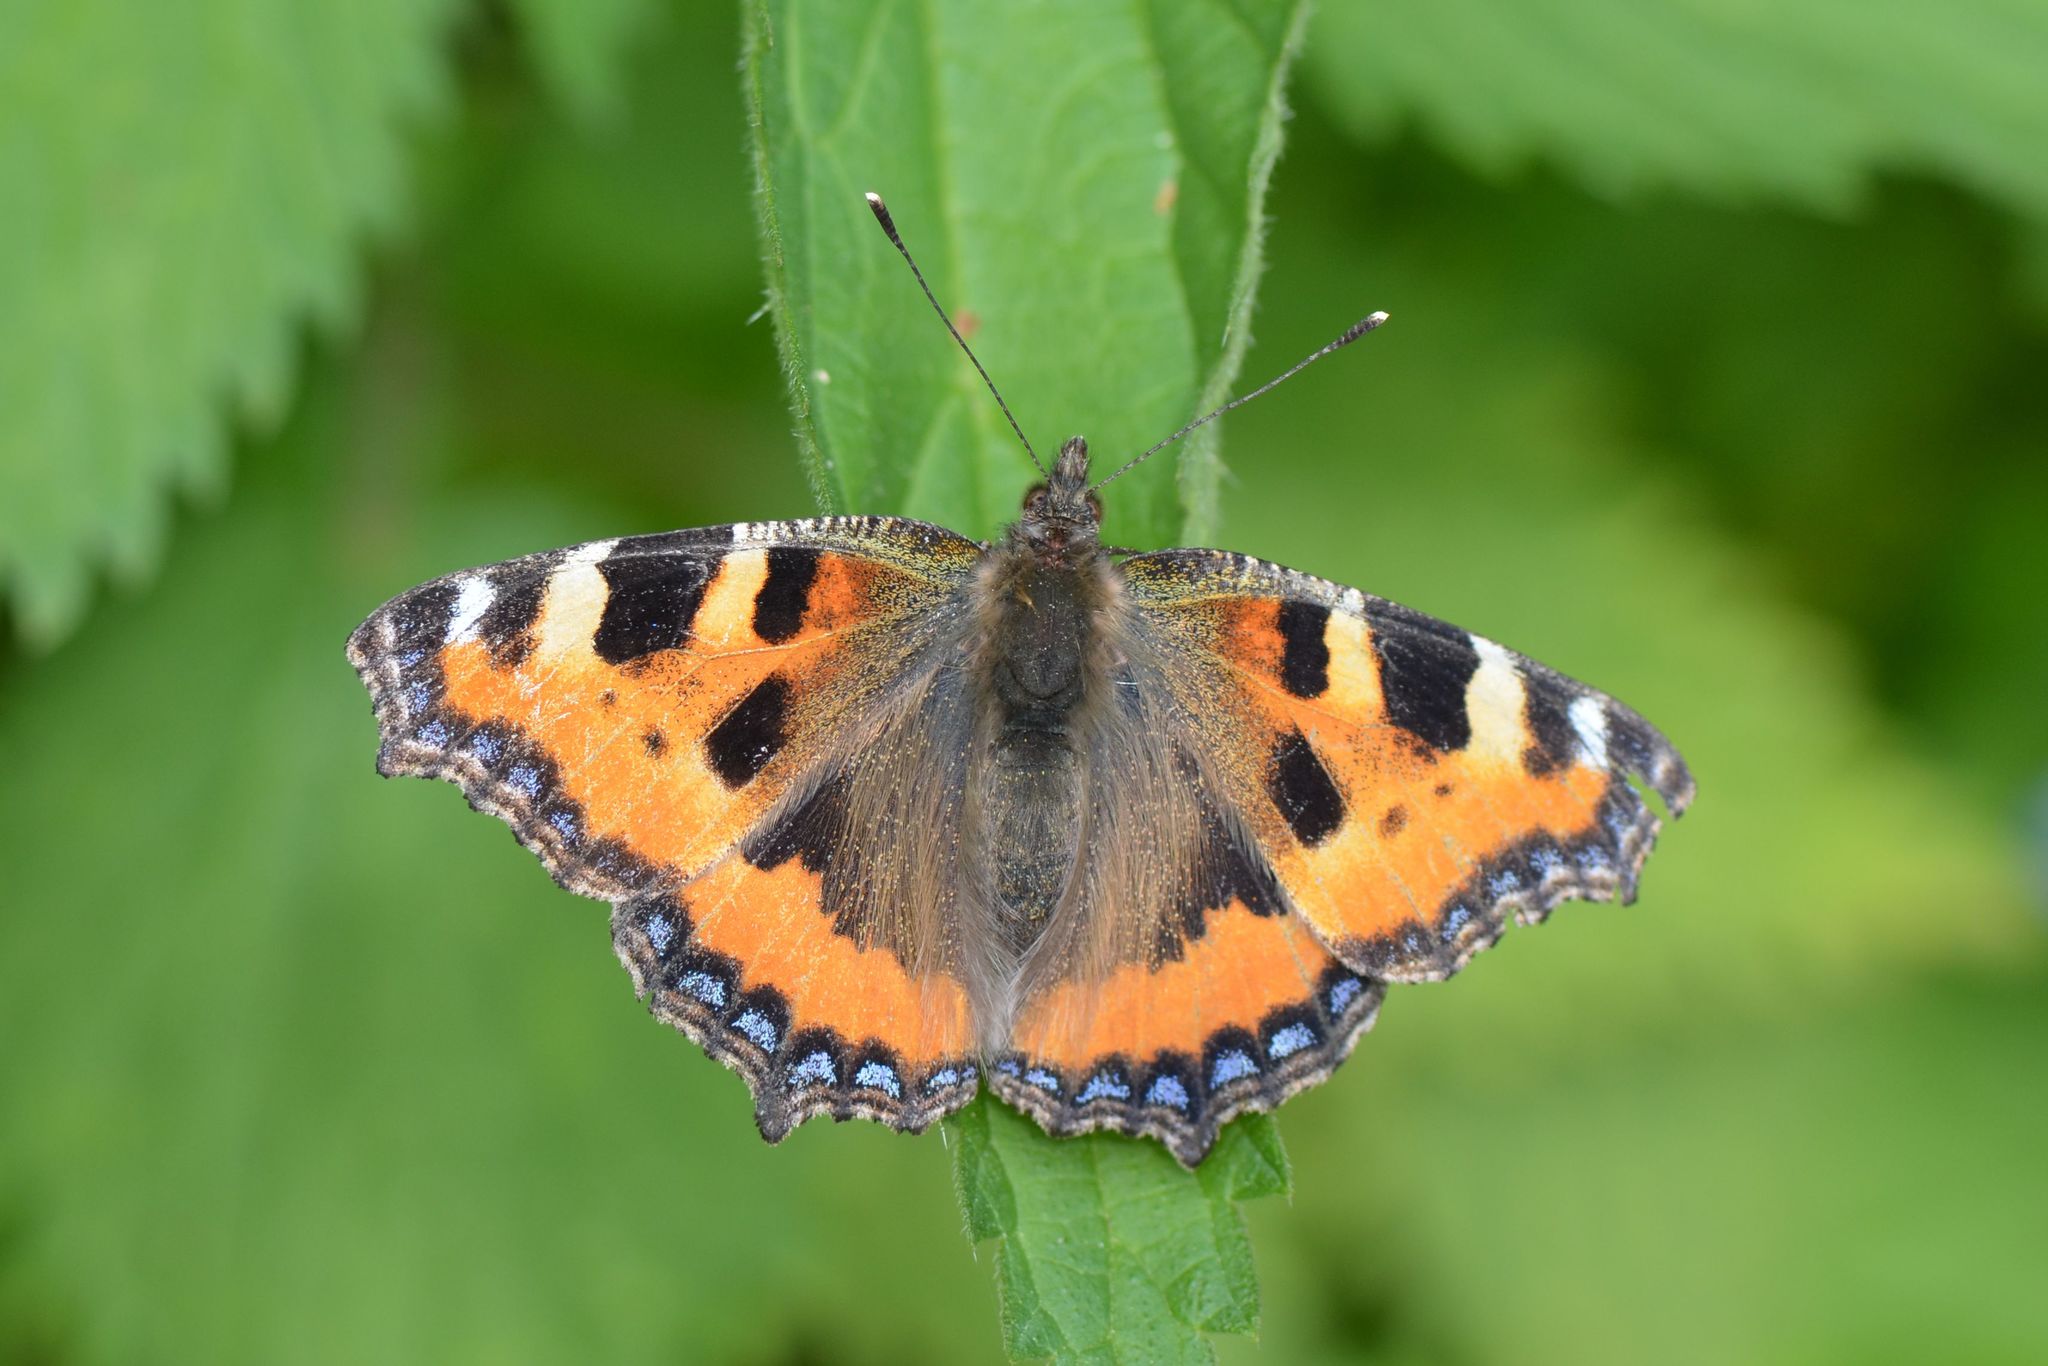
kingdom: Animalia
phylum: Arthropoda
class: Insecta
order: Lepidoptera
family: Nymphalidae
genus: Aglais
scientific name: Aglais urticae
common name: Small tortoiseshell
